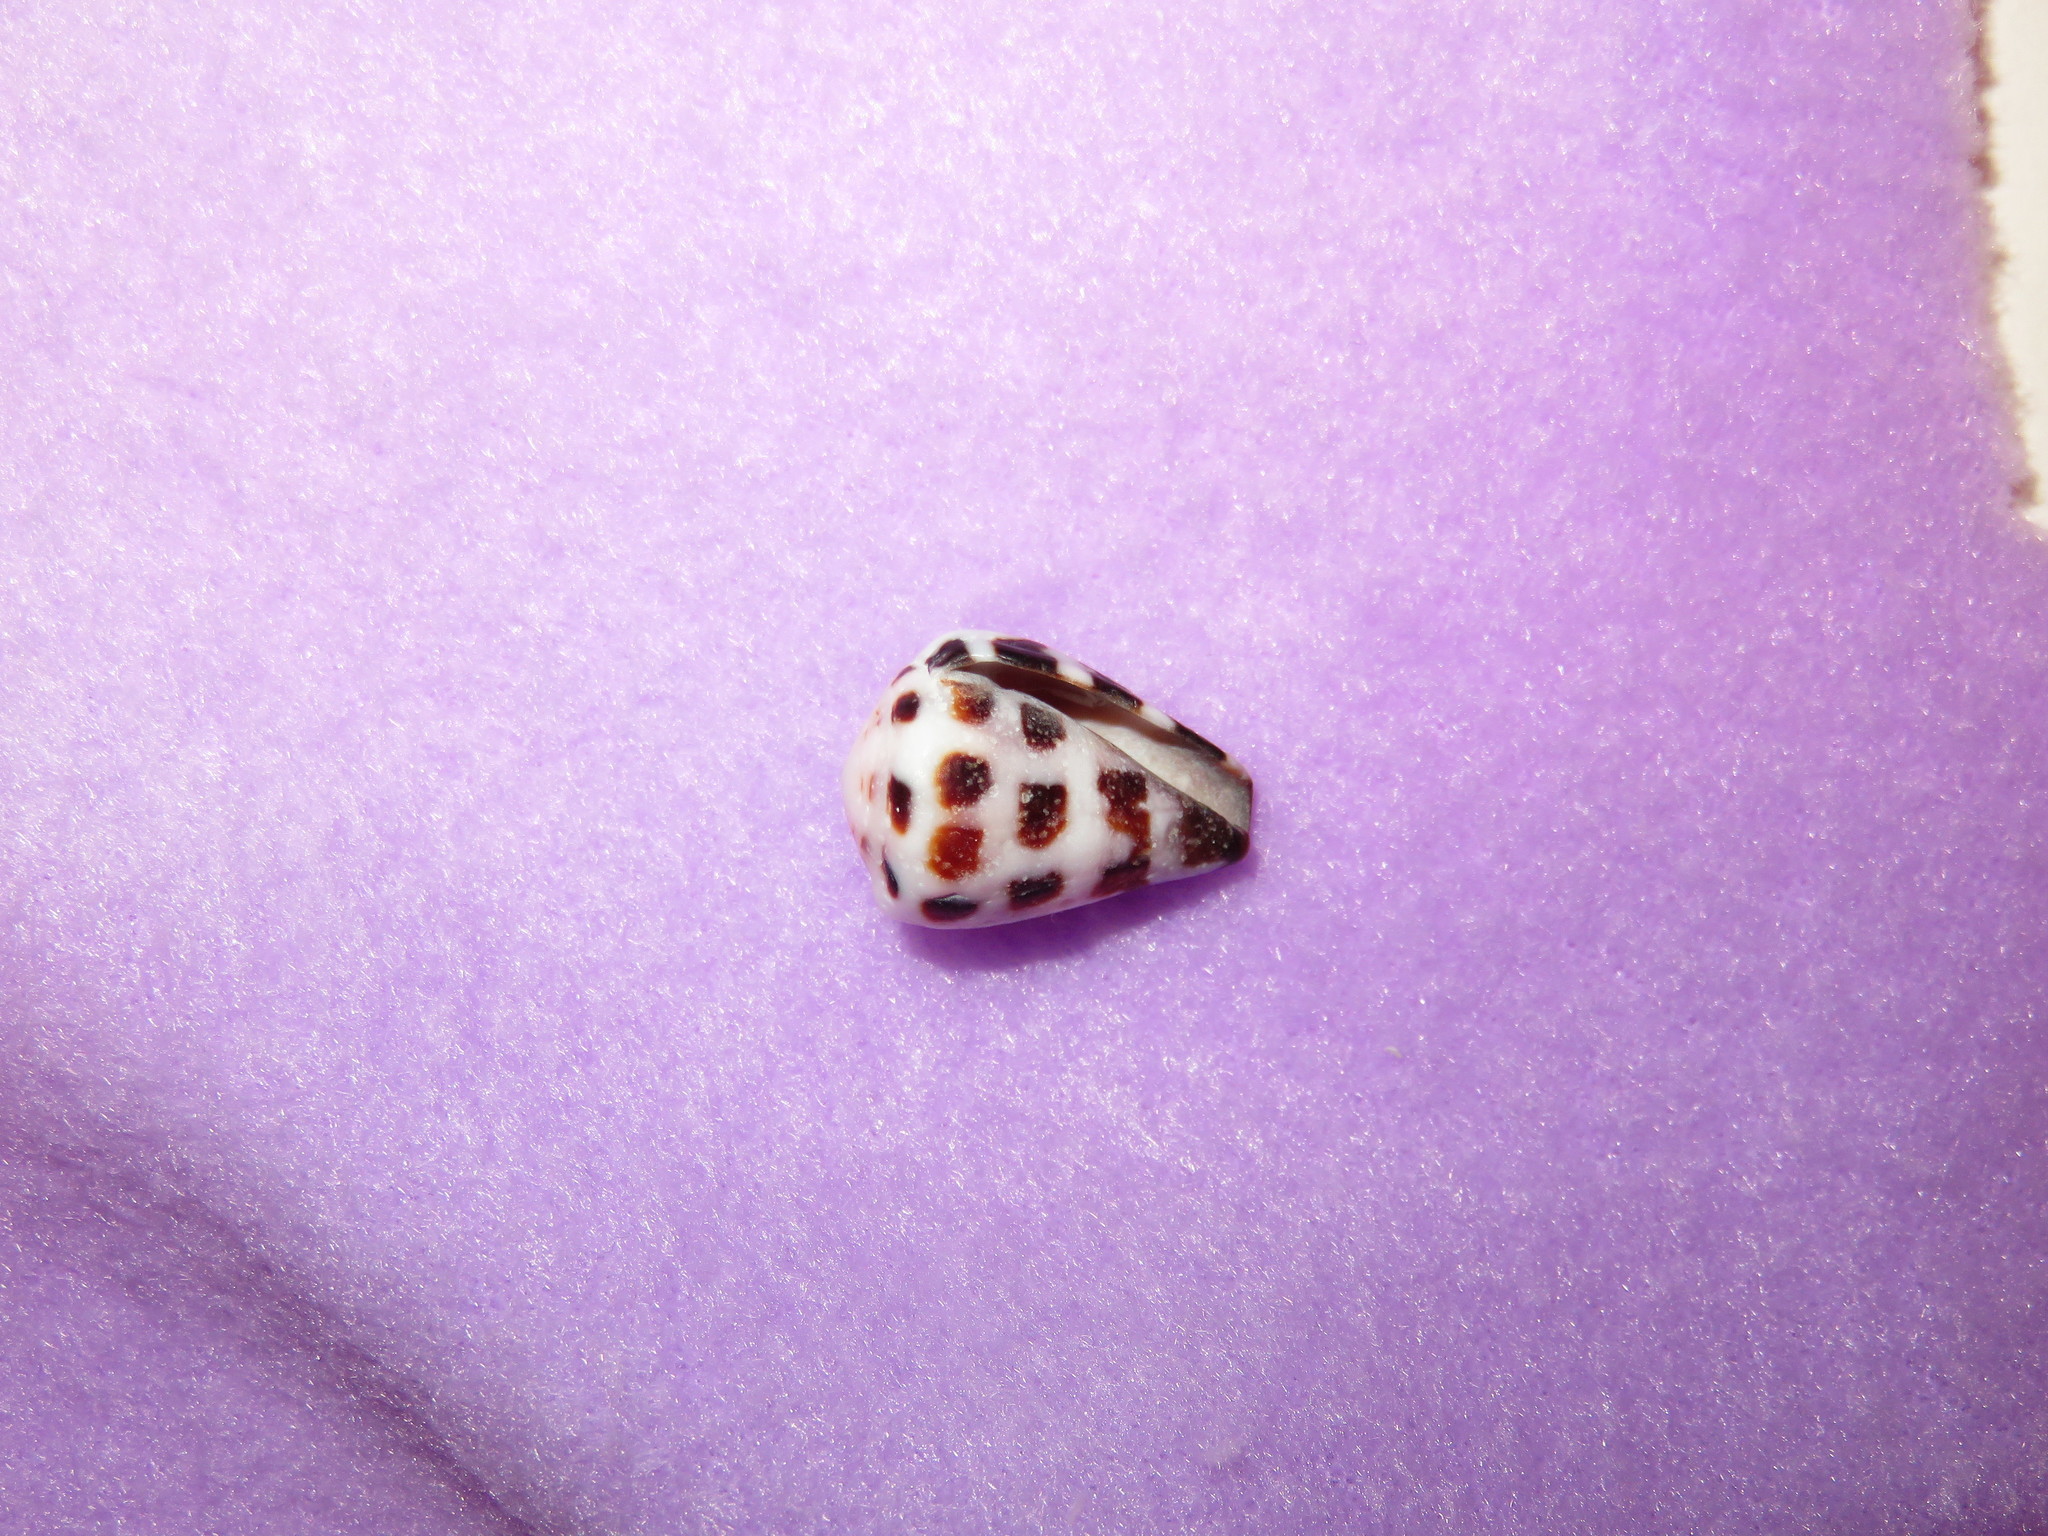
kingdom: Animalia
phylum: Mollusca
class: Gastropoda
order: Neogastropoda
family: Conidae
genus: Conus
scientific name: Conus ebraeus
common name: Hebrew cone
